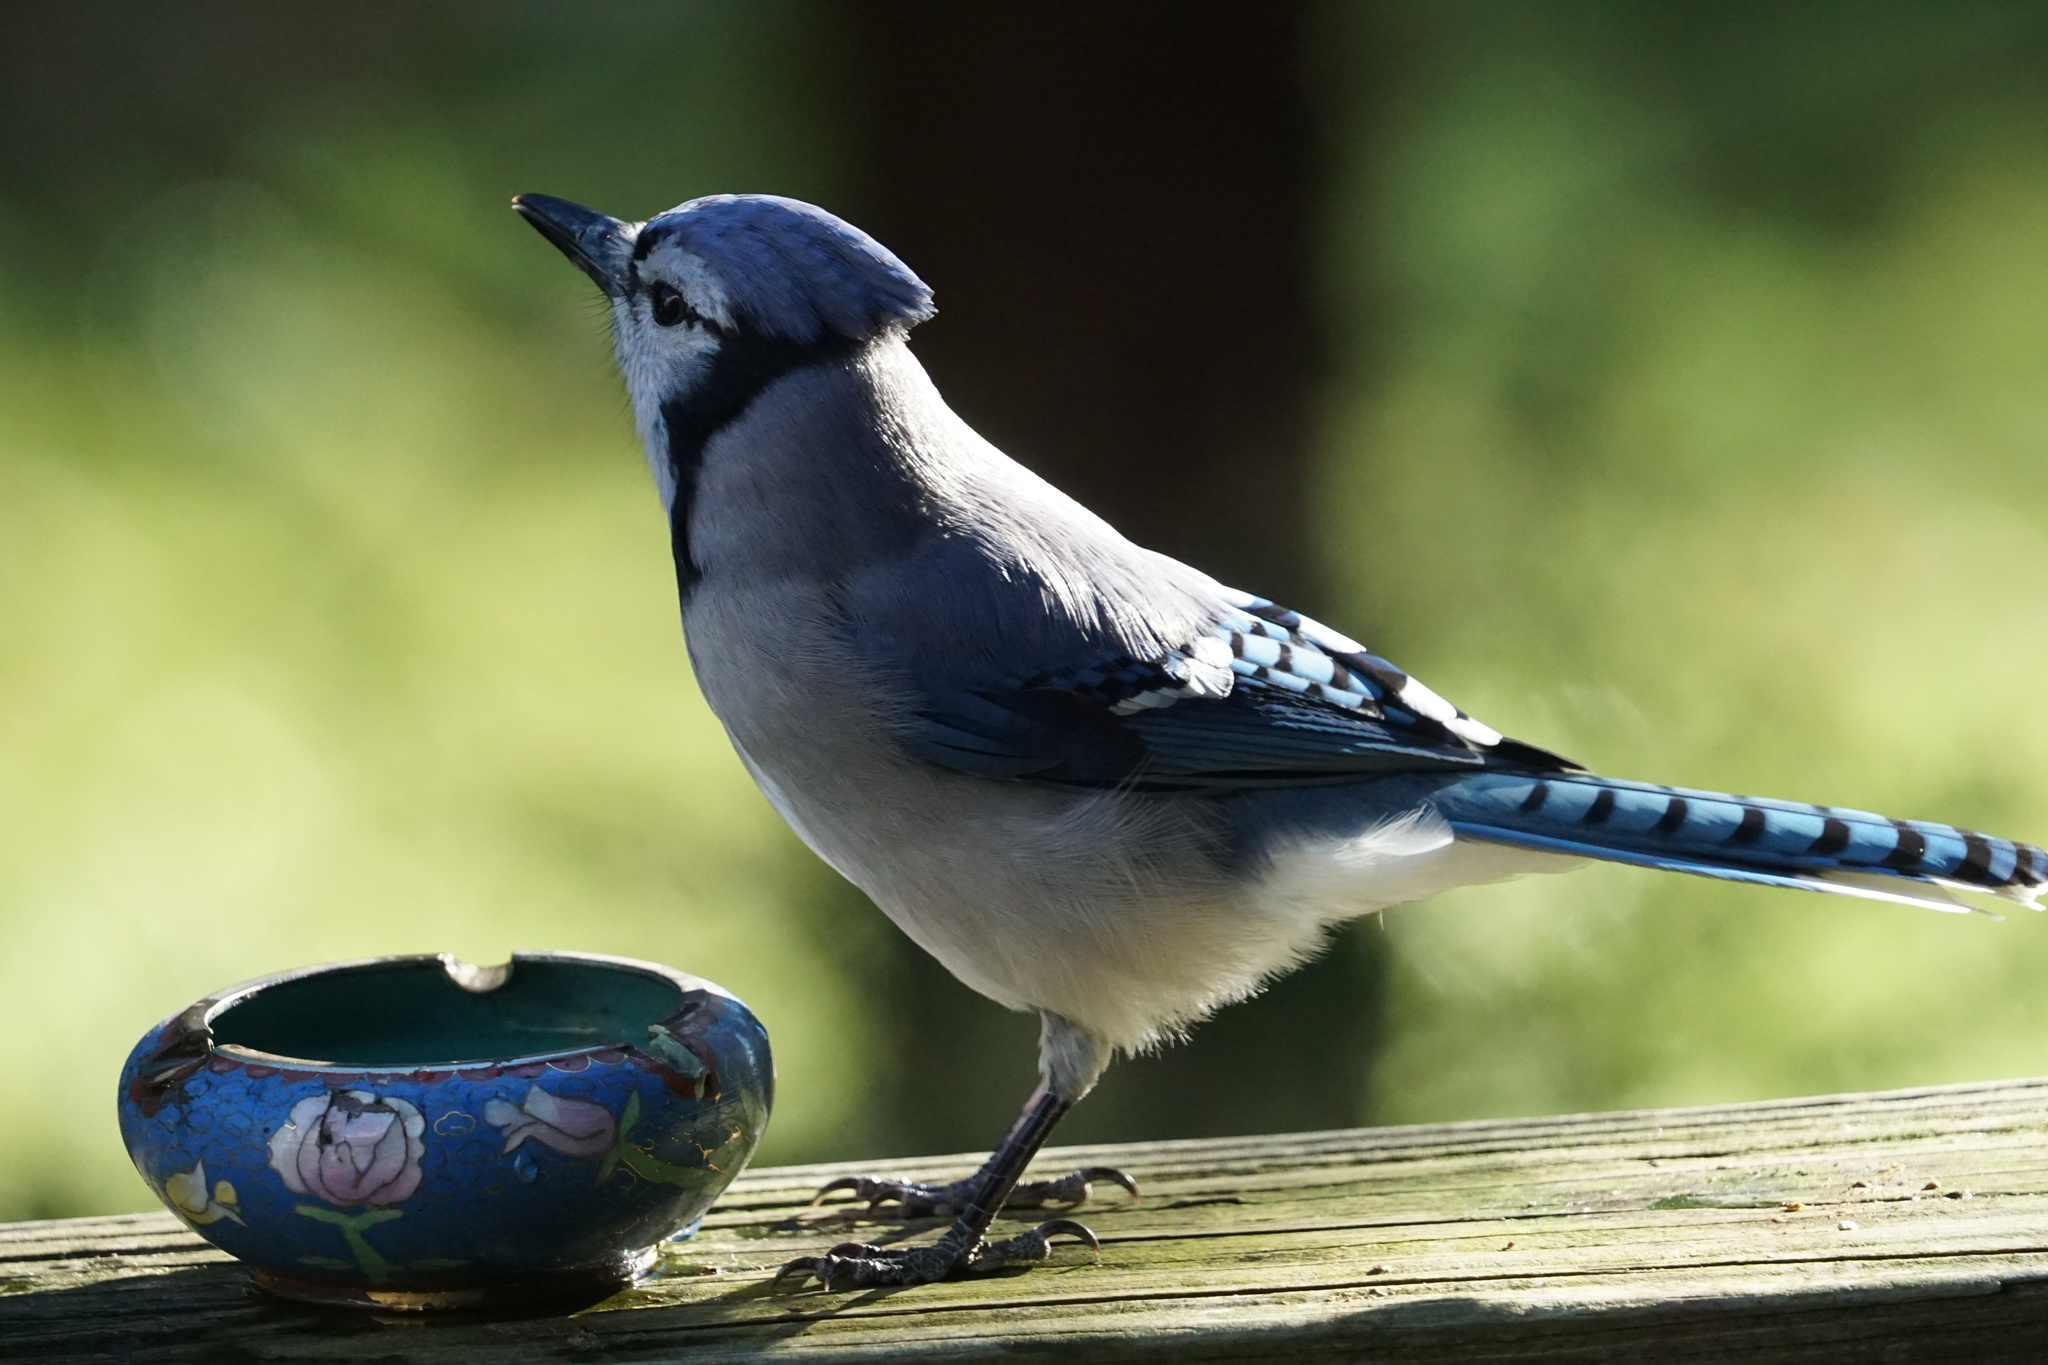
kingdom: Animalia
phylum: Chordata
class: Aves
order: Passeriformes
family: Corvidae
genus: Cyanocitta
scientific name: Cyanocitta cristata
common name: Blue jay
